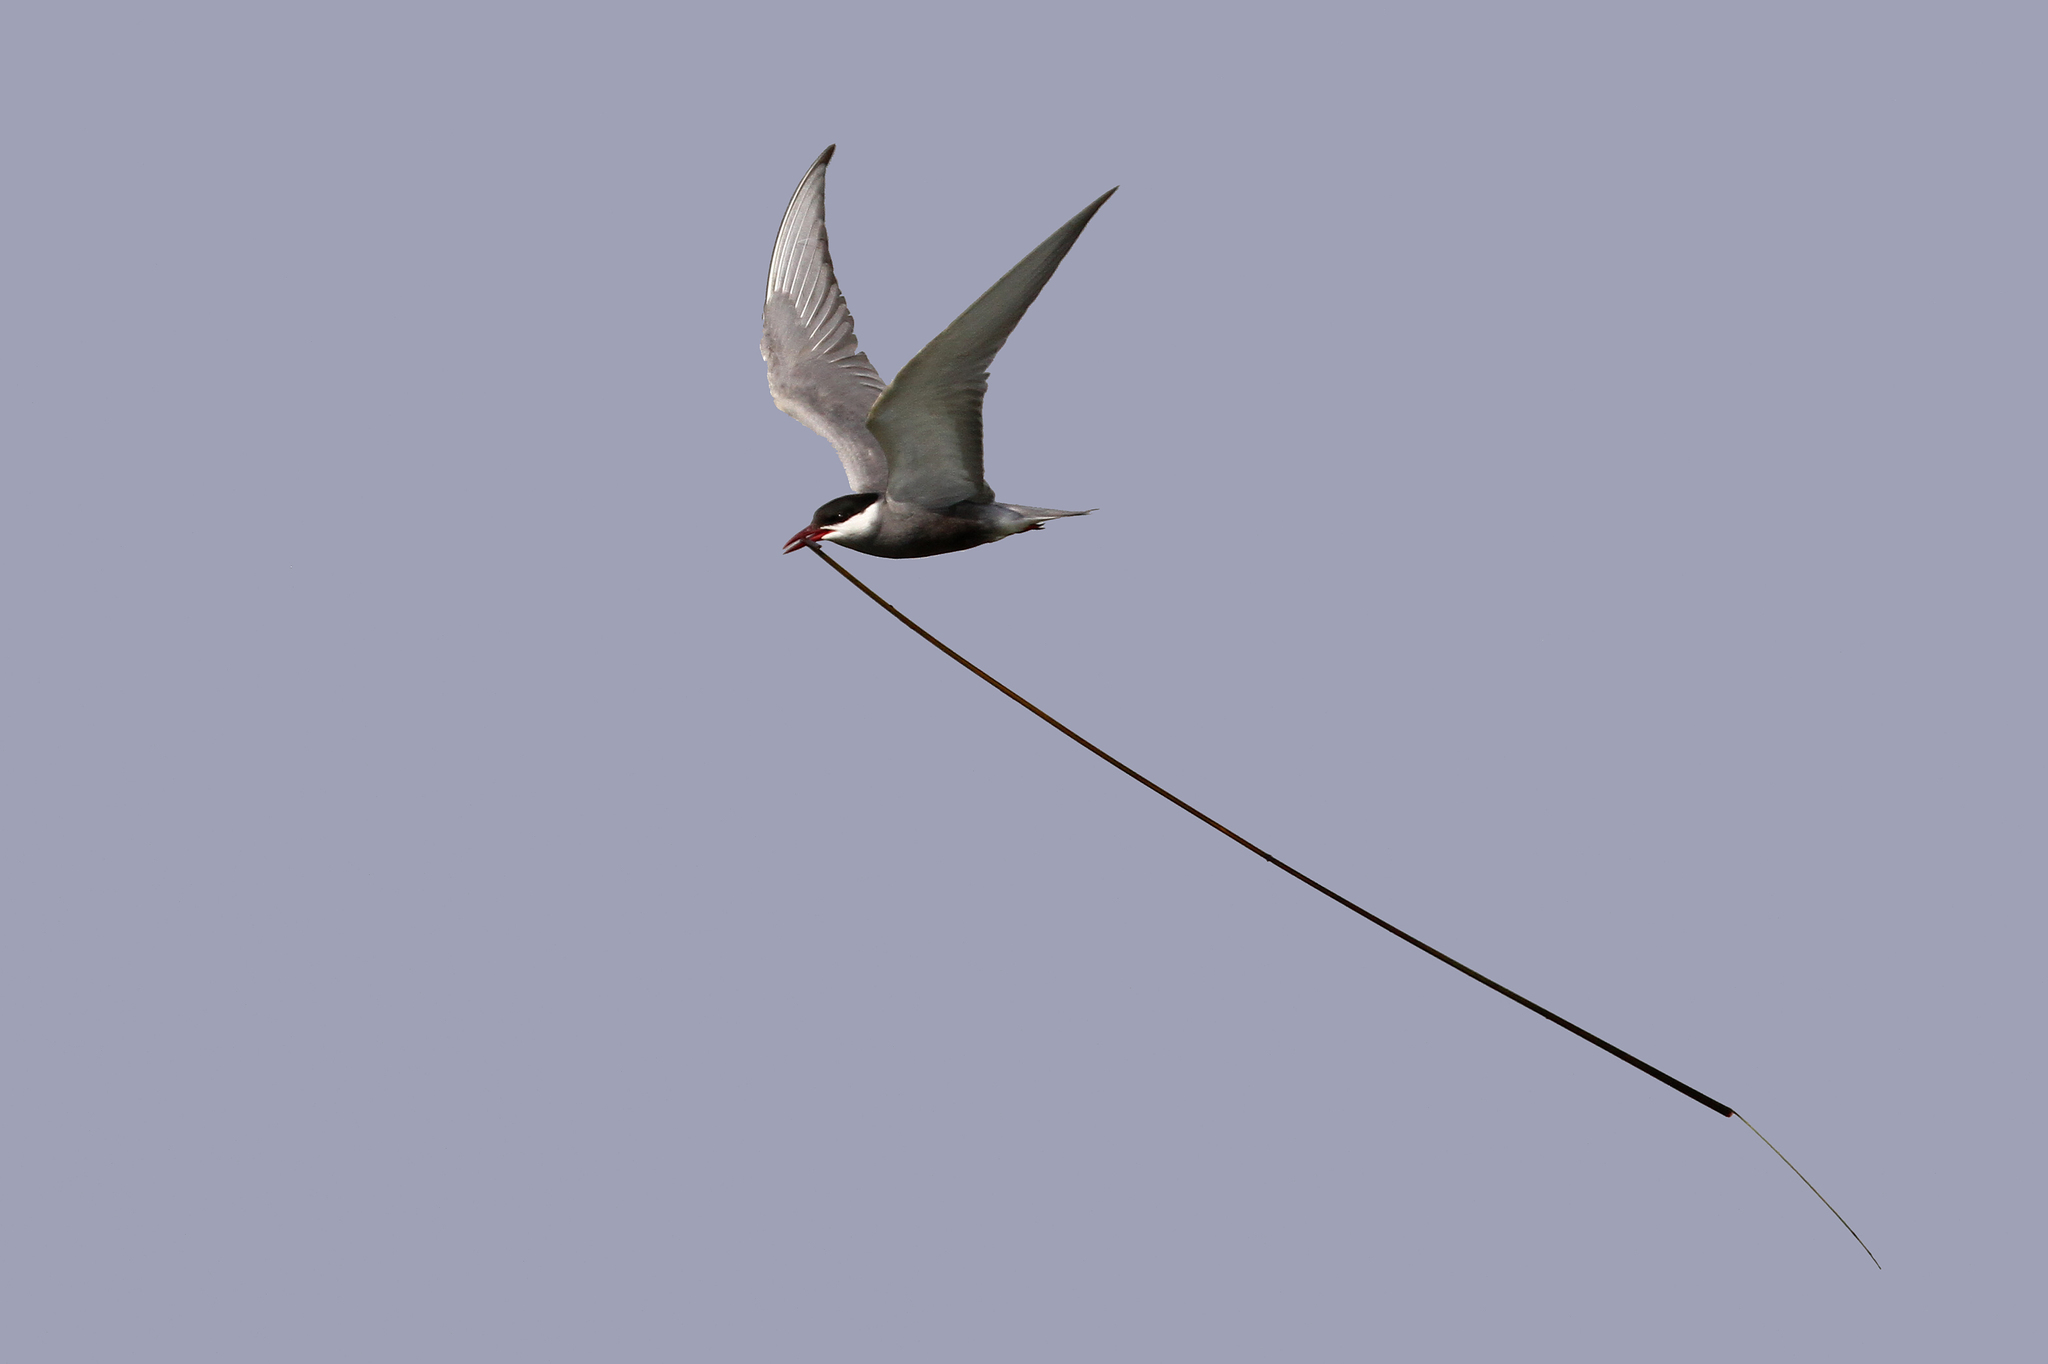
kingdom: Animalia
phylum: Chordata
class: Aves
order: Charadriiformes
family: Laridae
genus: Chlidonias
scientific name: Chlidonias hybrida
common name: Whiskered tern
